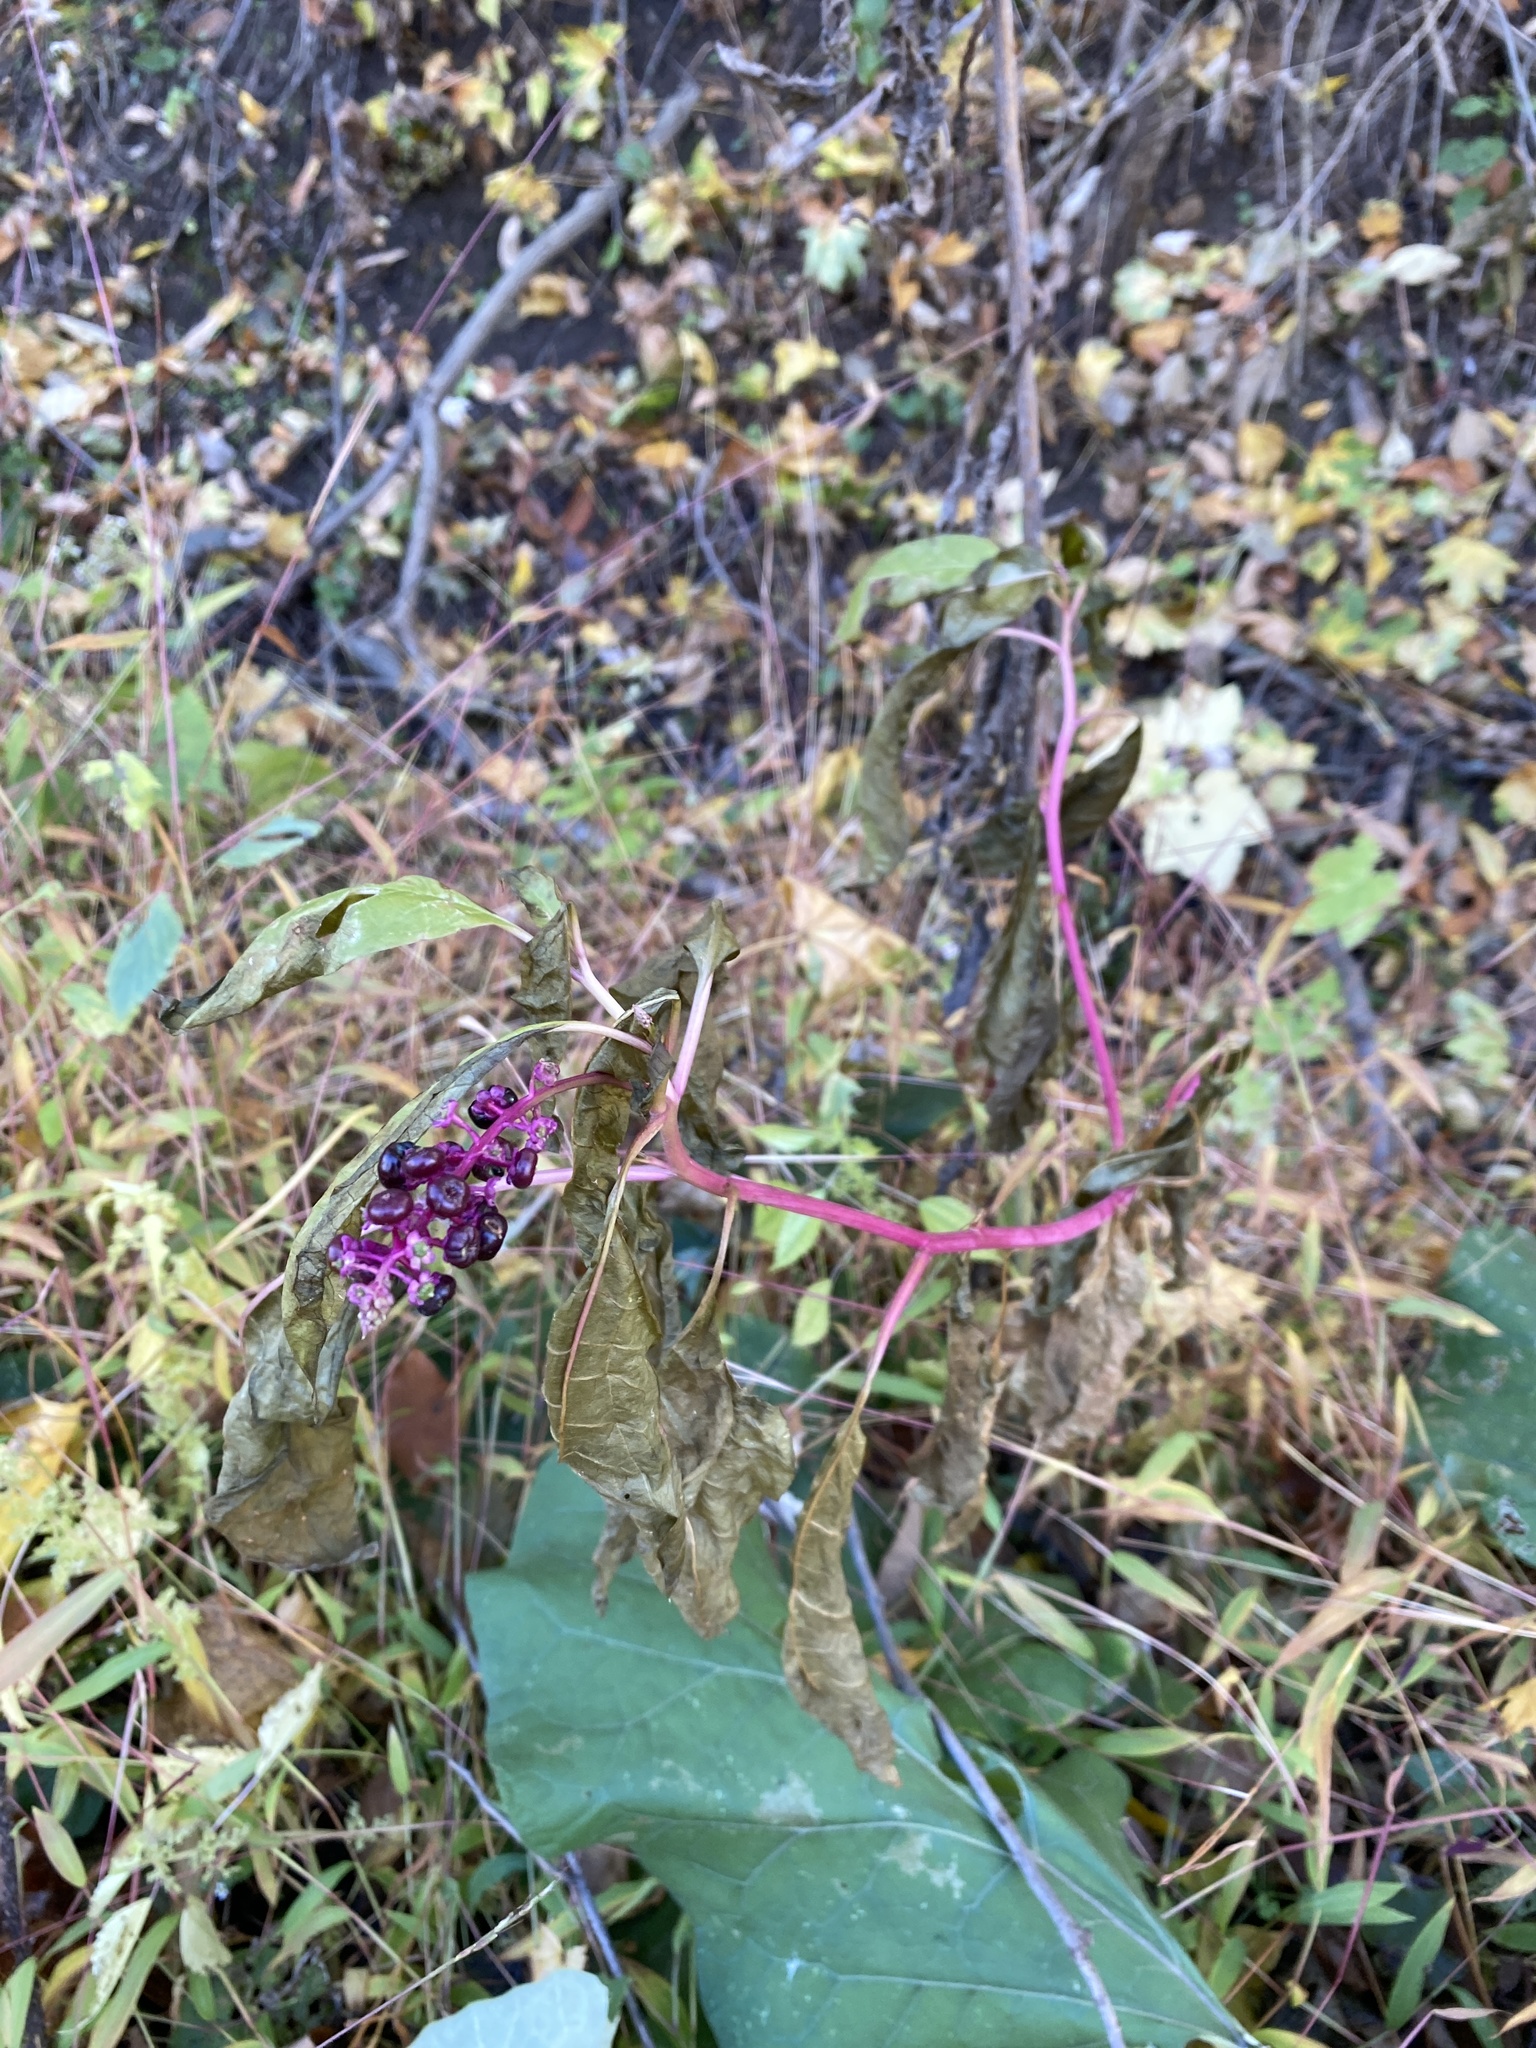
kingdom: Plantae
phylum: Tracheophyta
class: Magnoliopsida
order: Caryophyllales
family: Phytolaccaceae
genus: Phytolacca
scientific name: Phytolacca americana
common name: American pokeweed
